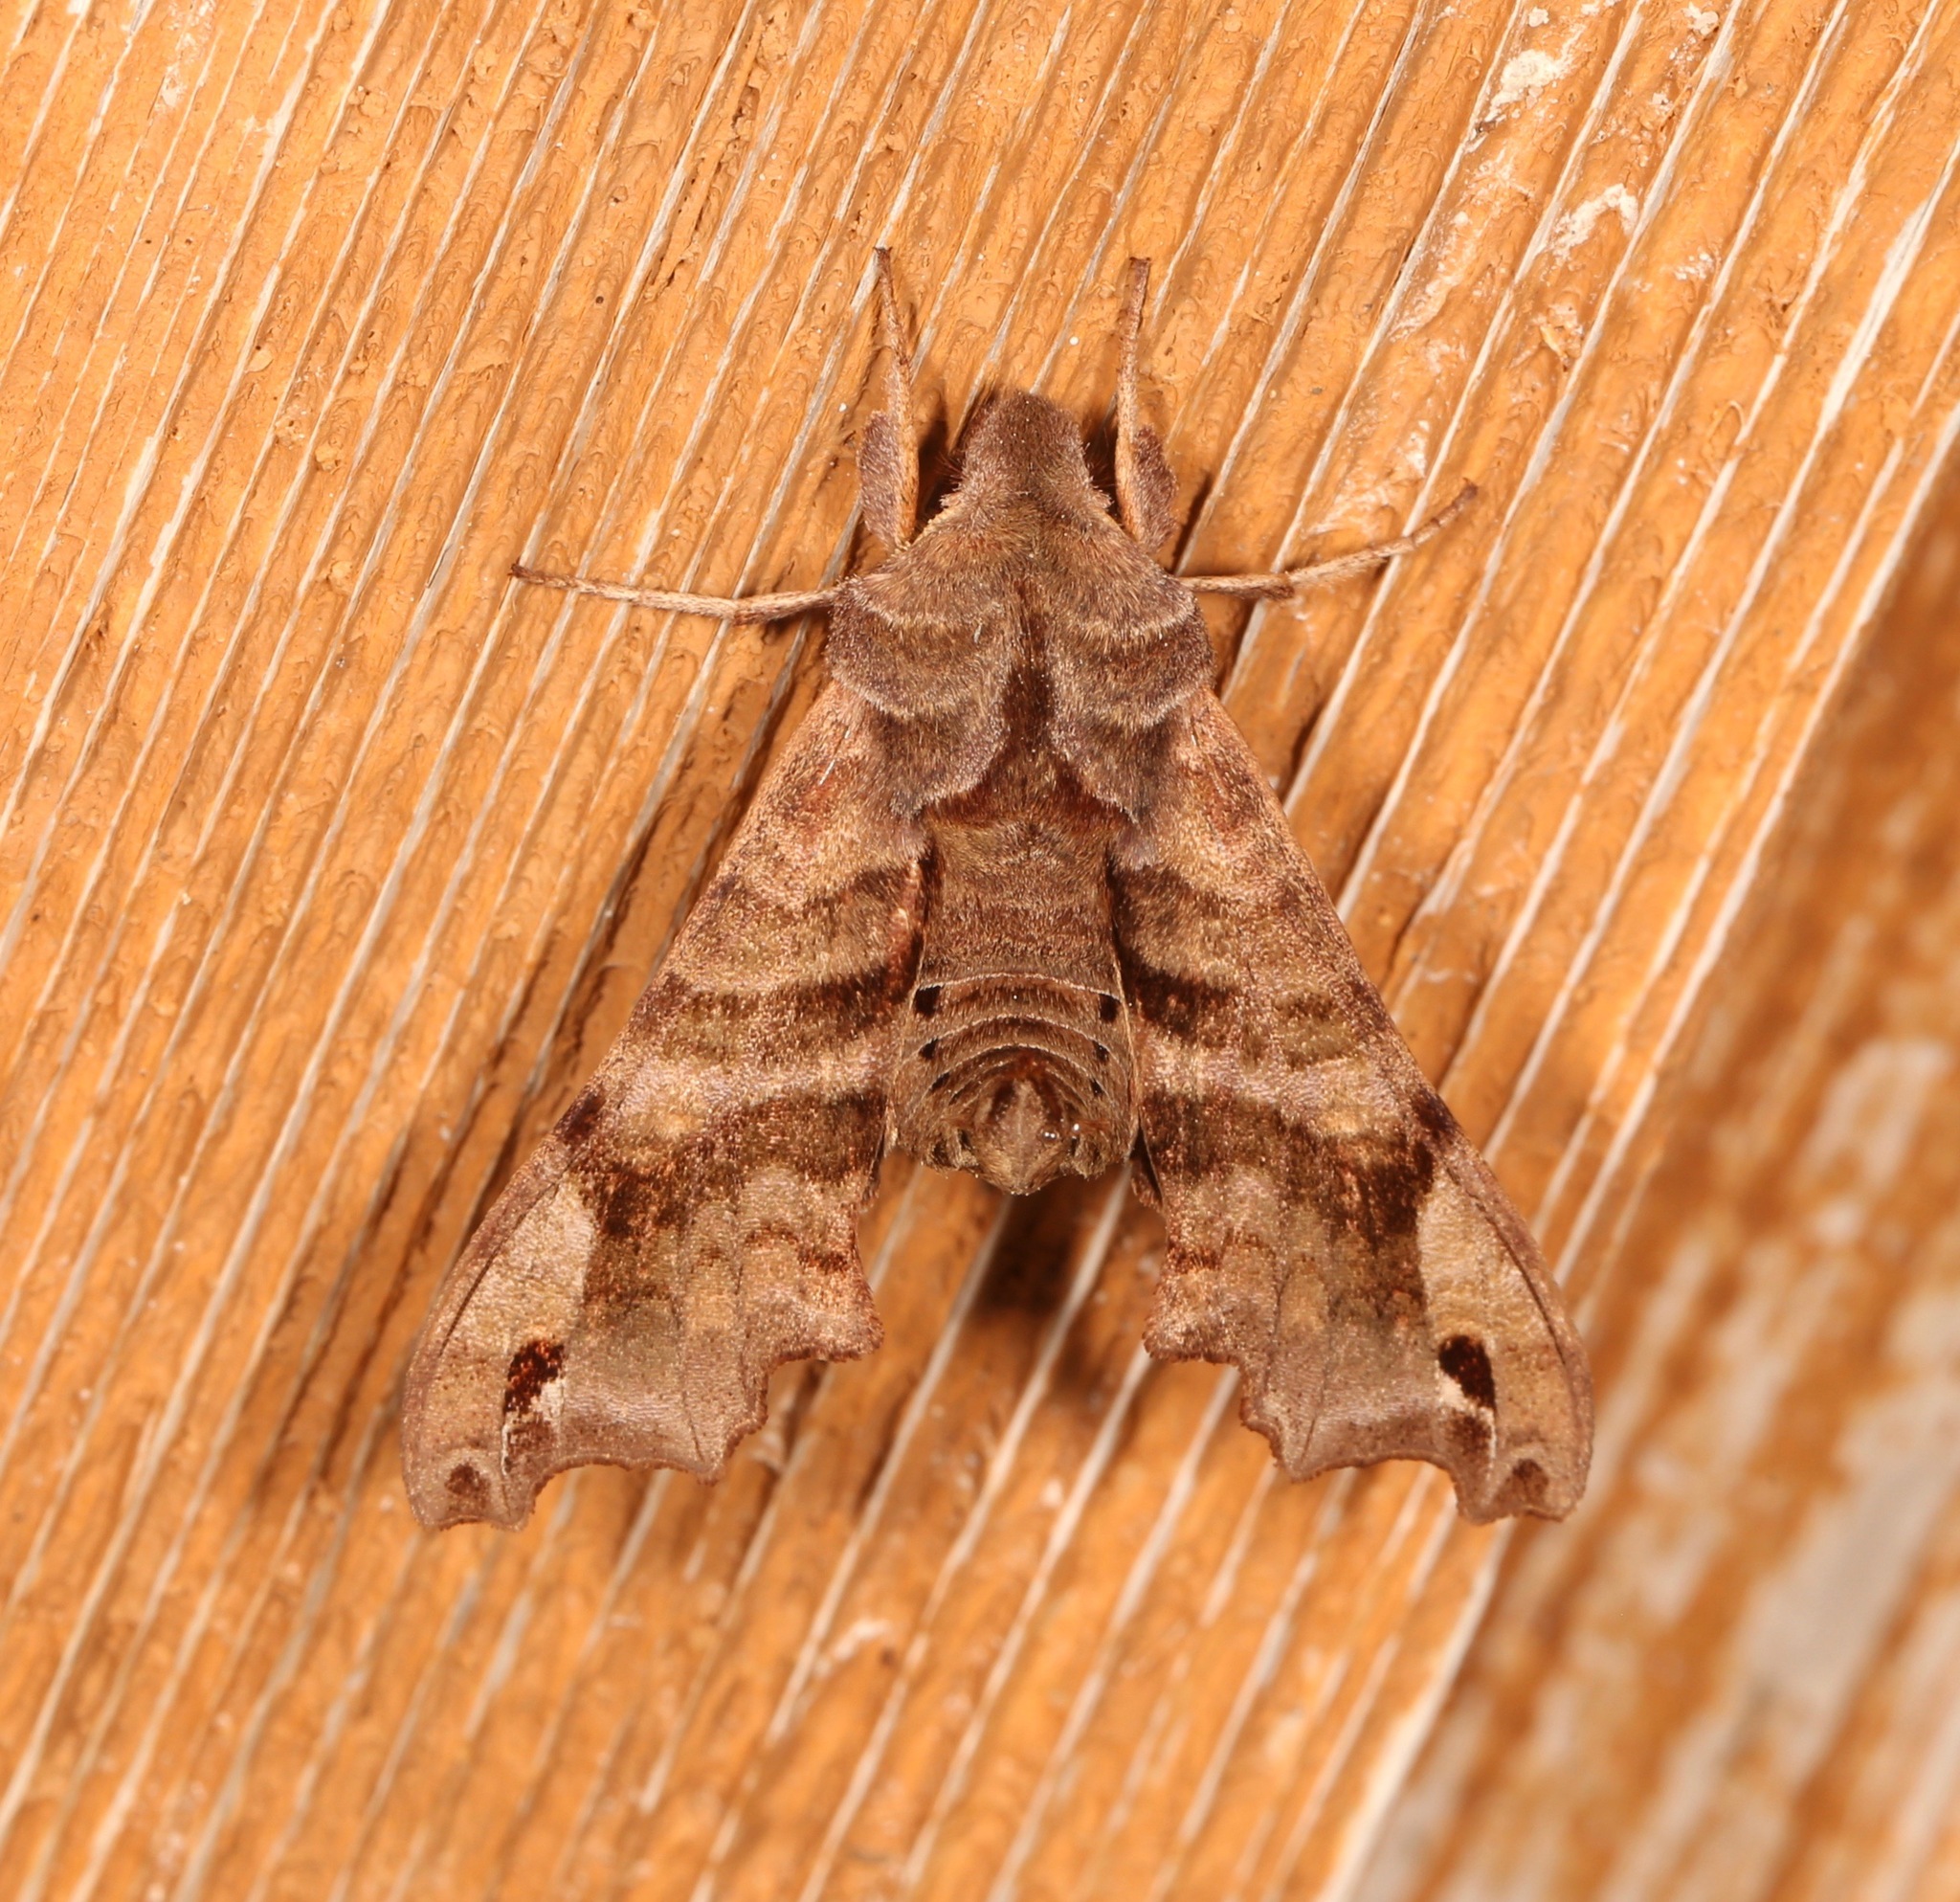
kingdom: Animalia
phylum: Arthropoda
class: Insecta
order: Lepidoptera
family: Sphingidae
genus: Deidamia
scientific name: Deidamia inscriptum
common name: Lettered sphinx
